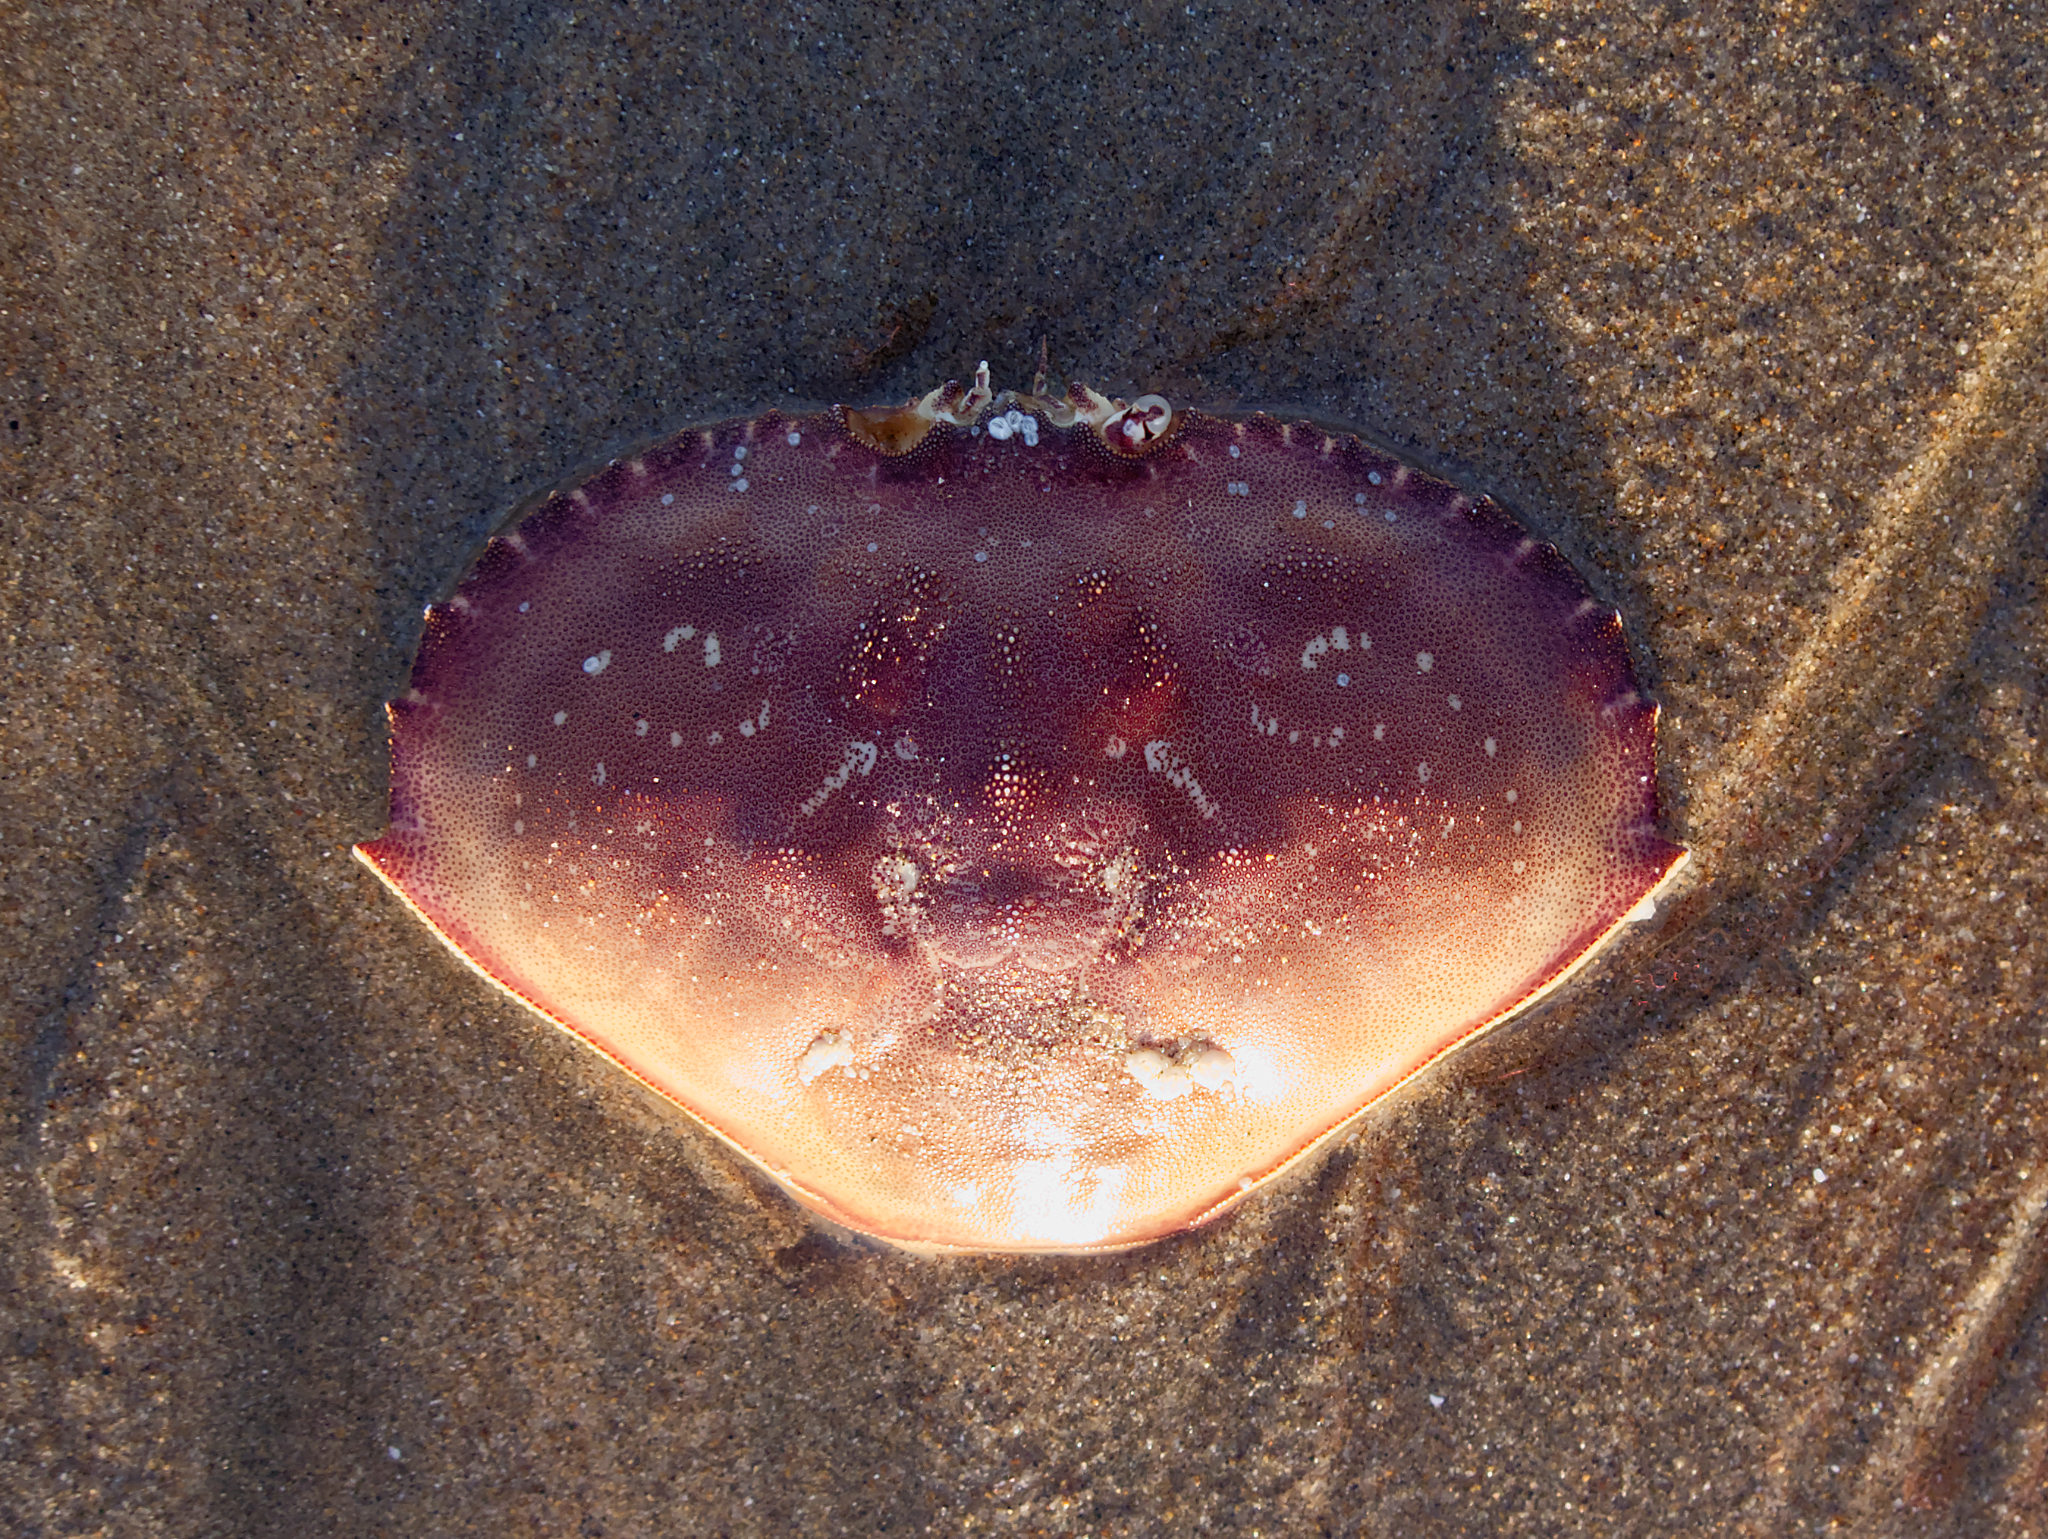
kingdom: Animalia
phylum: Arthropoda
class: Malacostraca
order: Decapoda
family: Cancridae
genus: Metacarcinus
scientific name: Metacarcinus magister
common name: Californian crab
